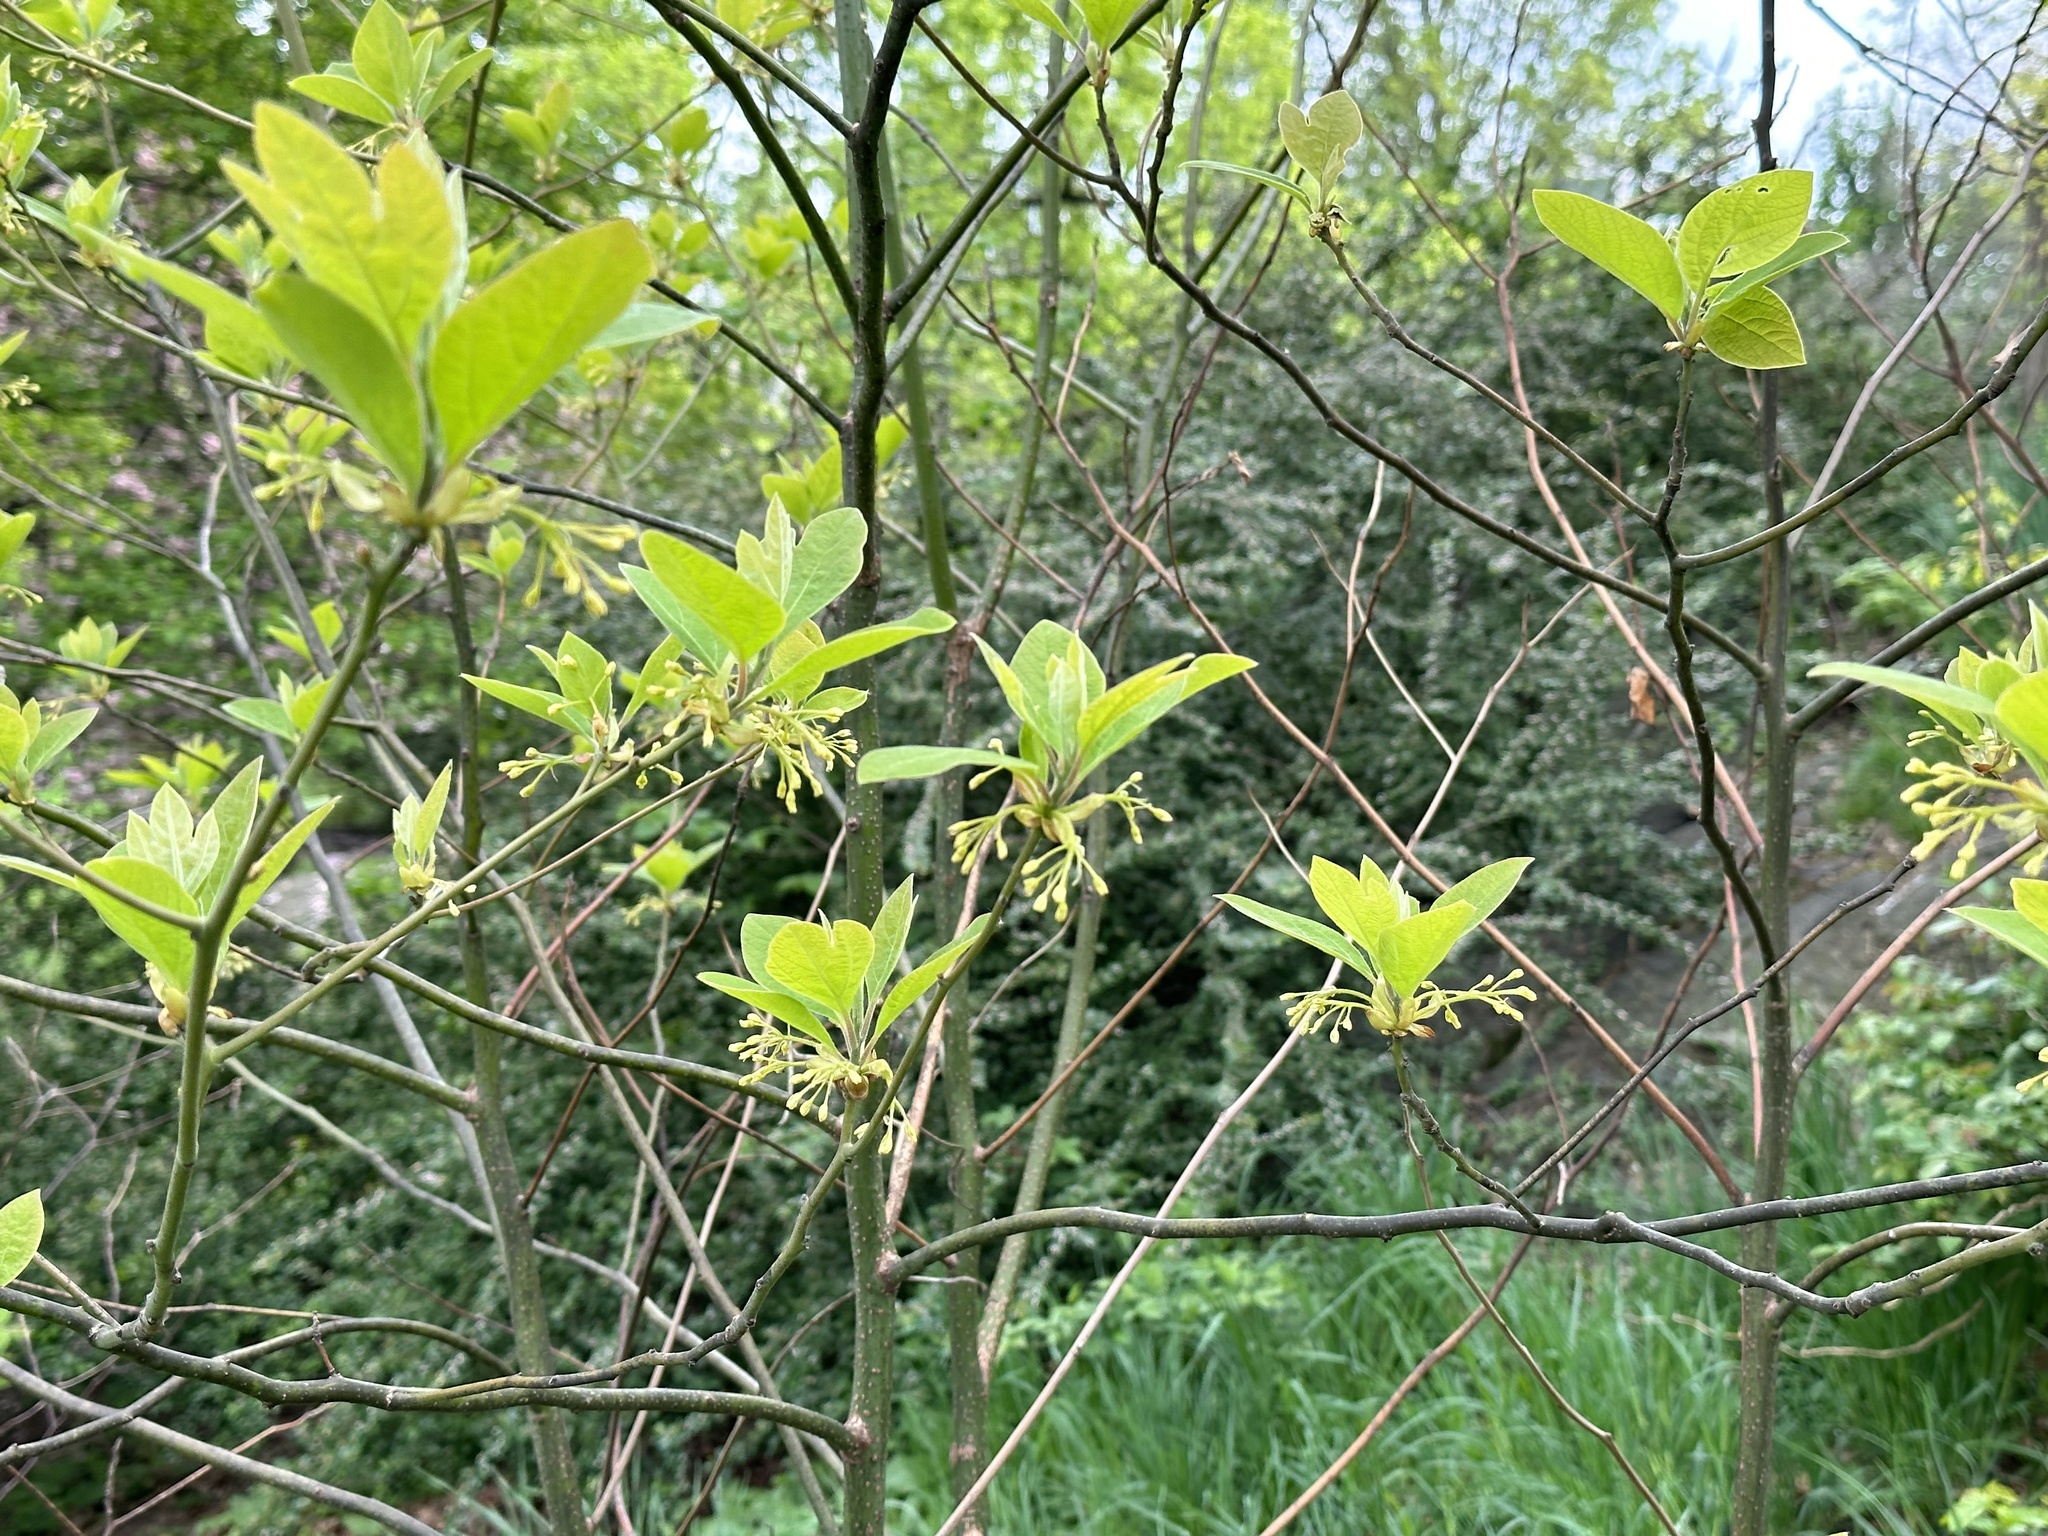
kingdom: Plantae
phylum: Tracheophyta
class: Magnoliopsida
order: Laurales
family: Lauraceae
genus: Sassafras
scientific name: Sassafras albidum
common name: Sassafras
